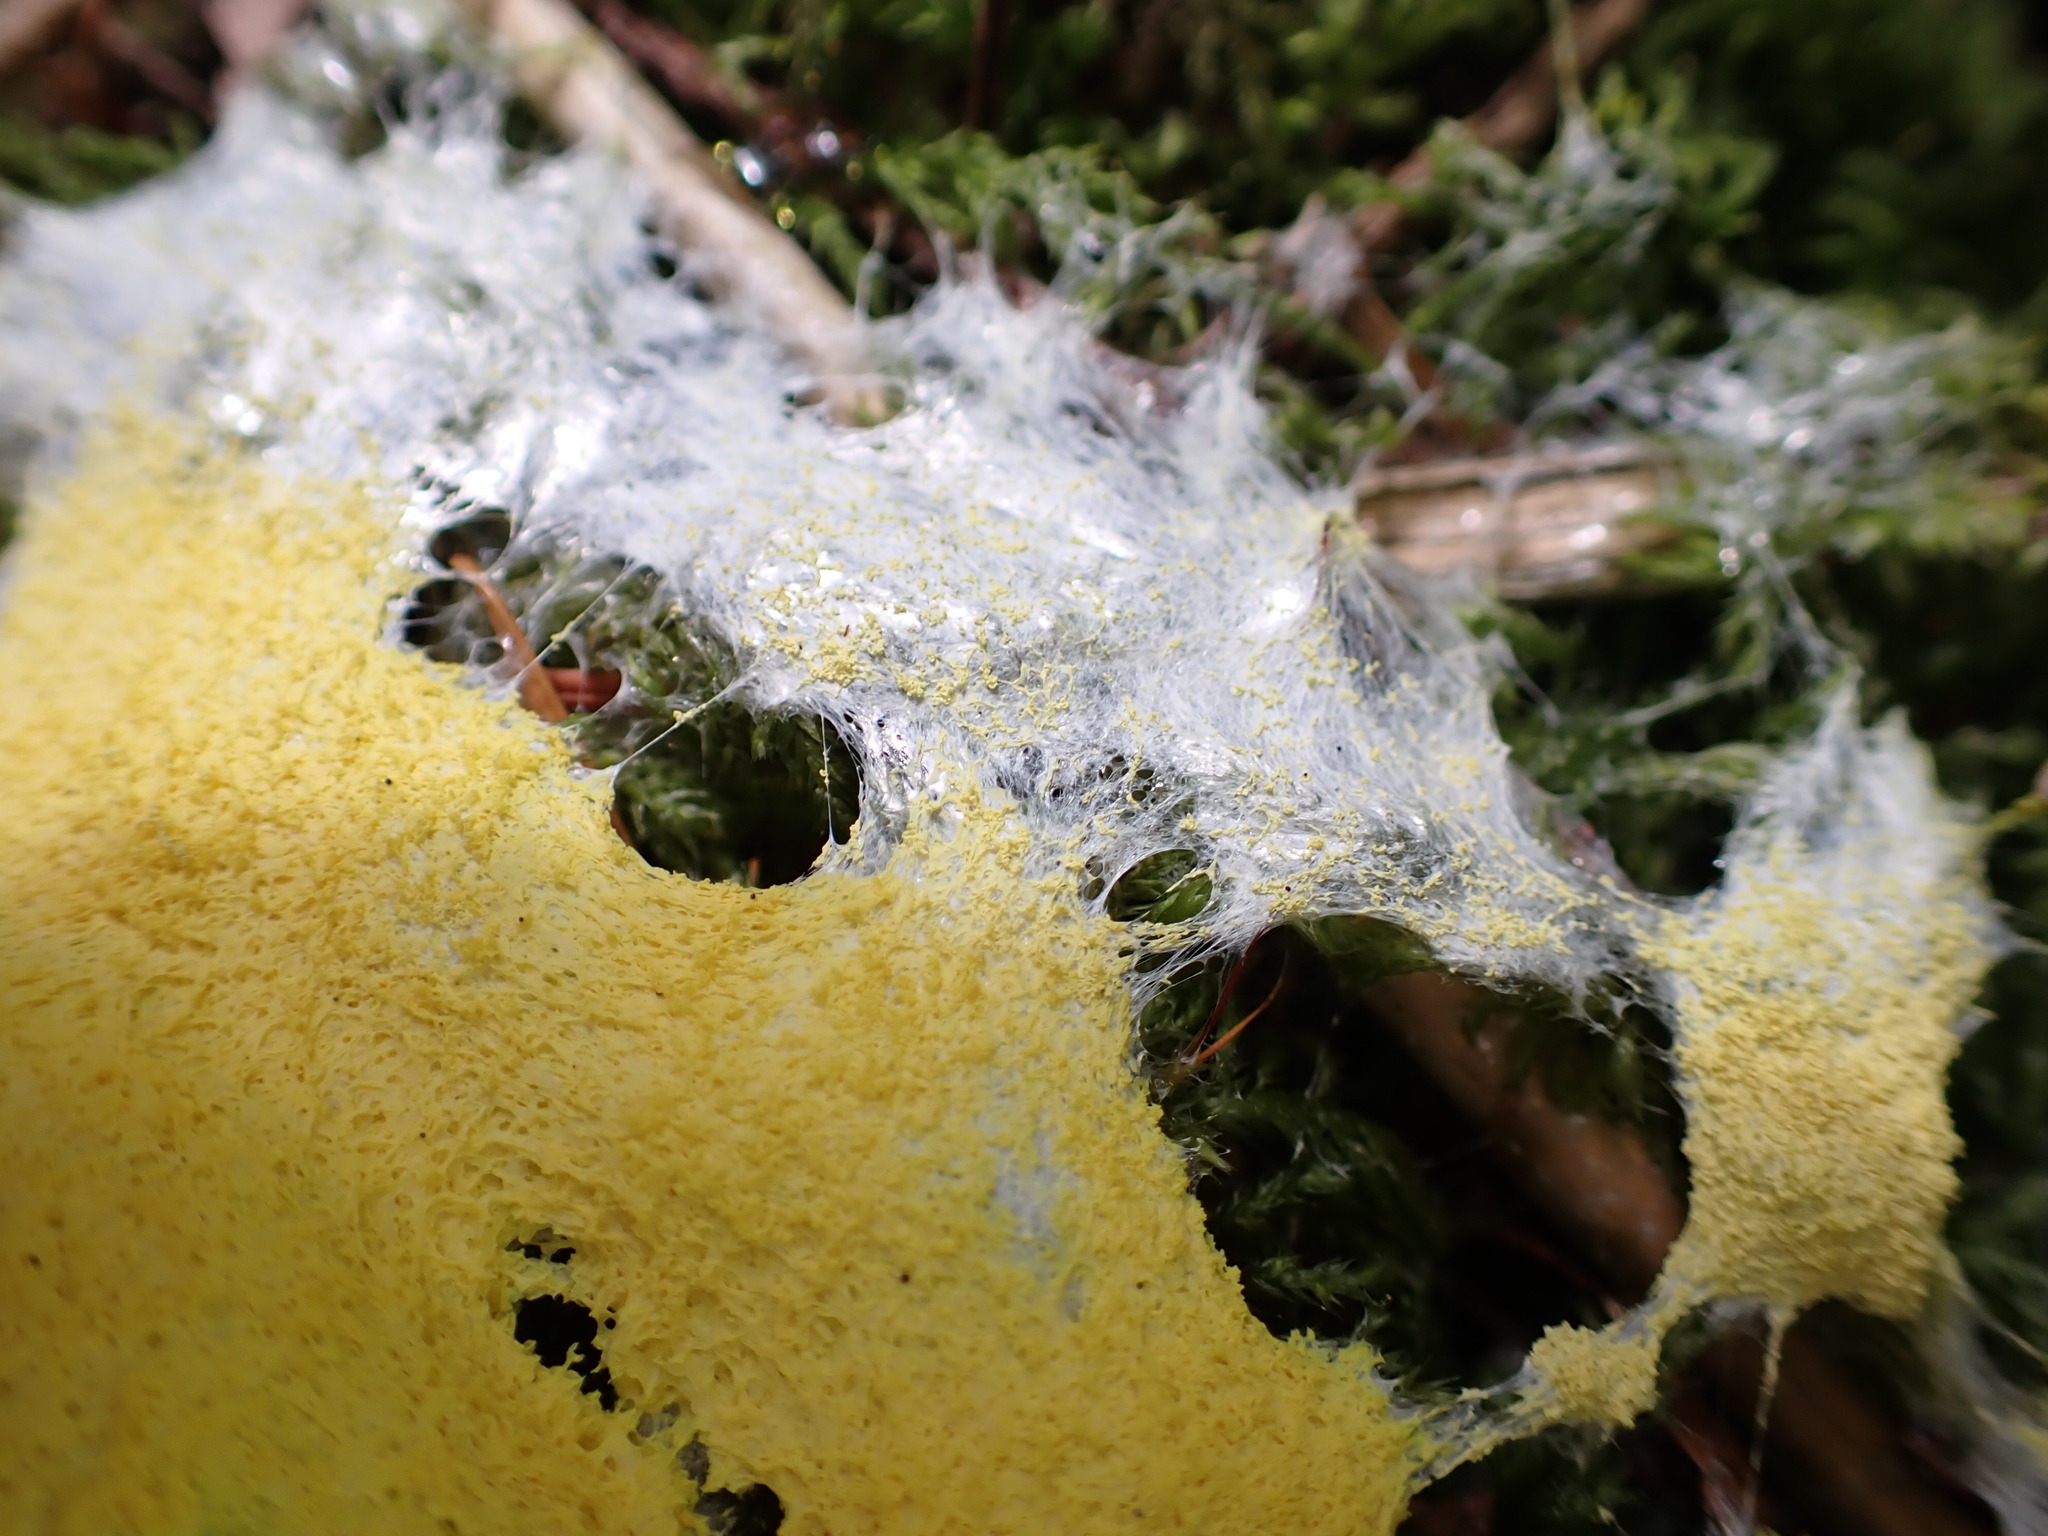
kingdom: Protozoa
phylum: Mycetozoa
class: Myxomycetes
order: Physarales
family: Physaraceae
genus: Fuligo
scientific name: Fuligo septica
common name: Dog vomit slime mold
